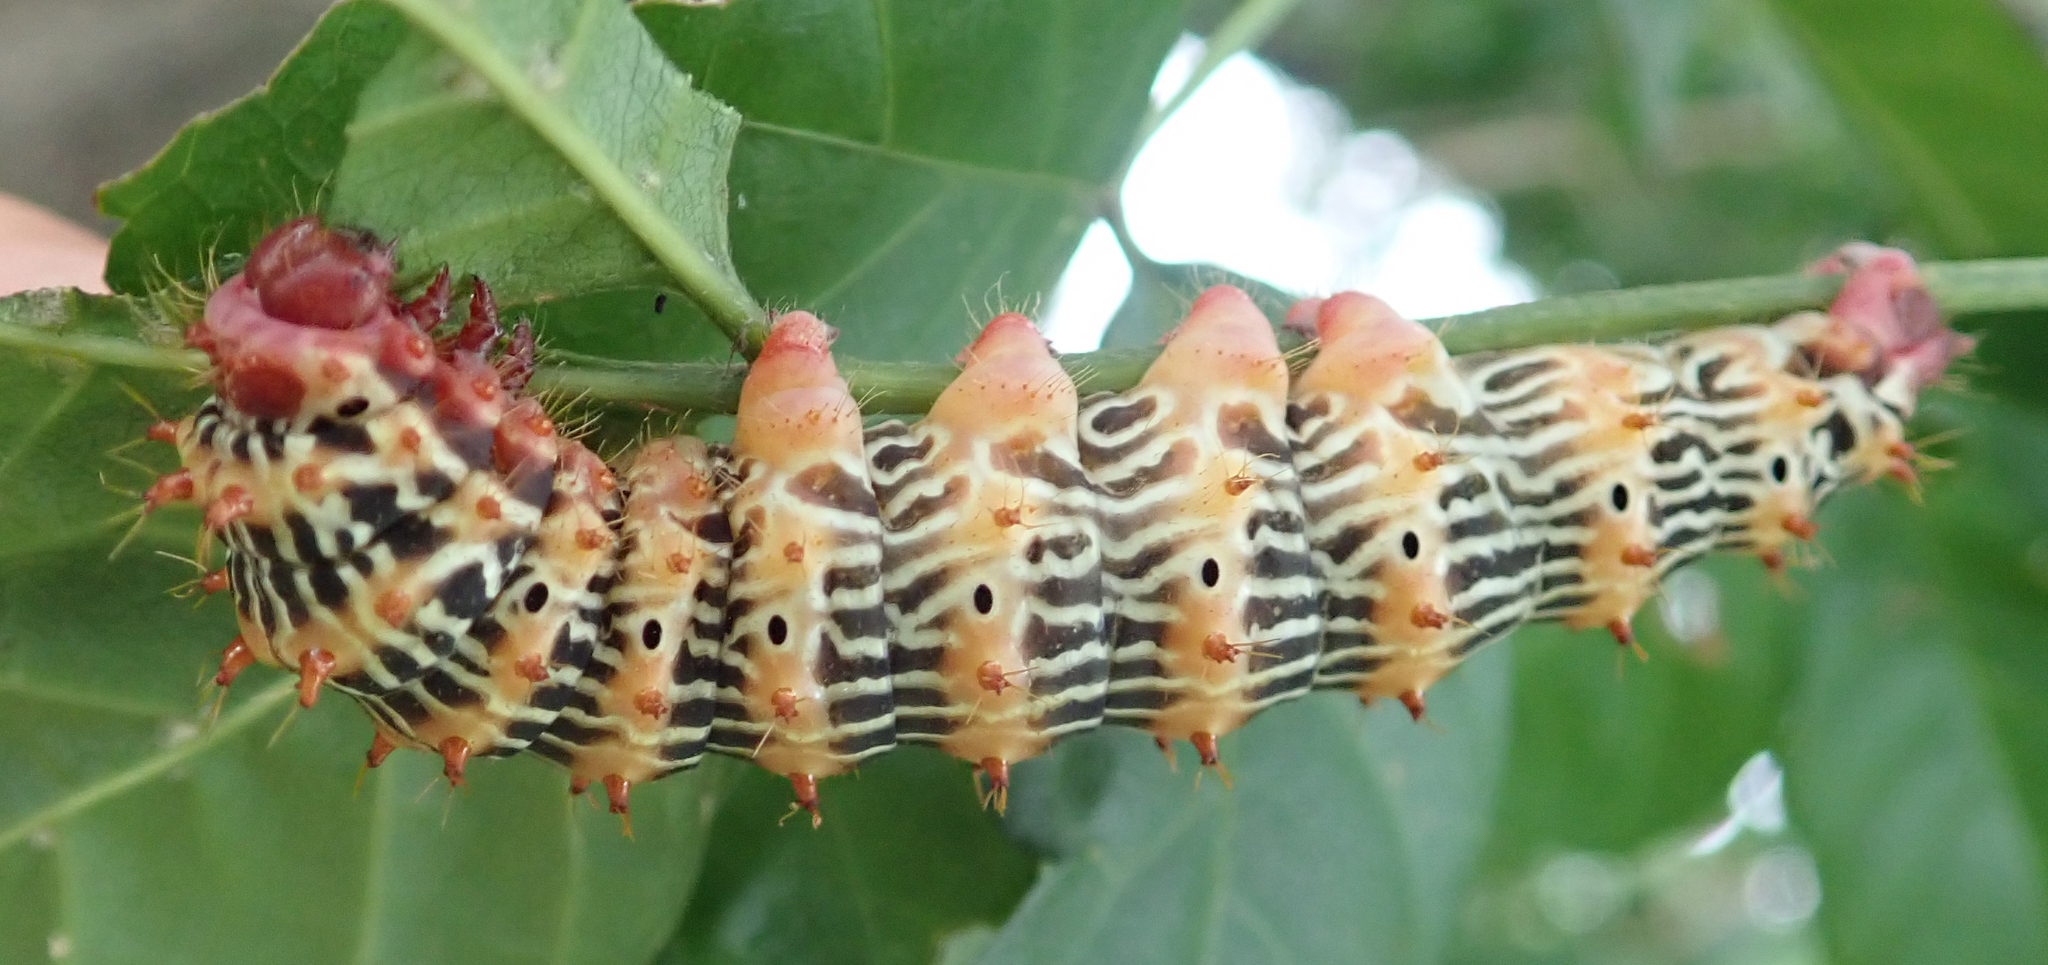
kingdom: Animalia
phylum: Arthropoda
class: Insecta
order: Lepidoptera
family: Saturniidae
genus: Tagoropsis
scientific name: Tagoropsis flavinata
